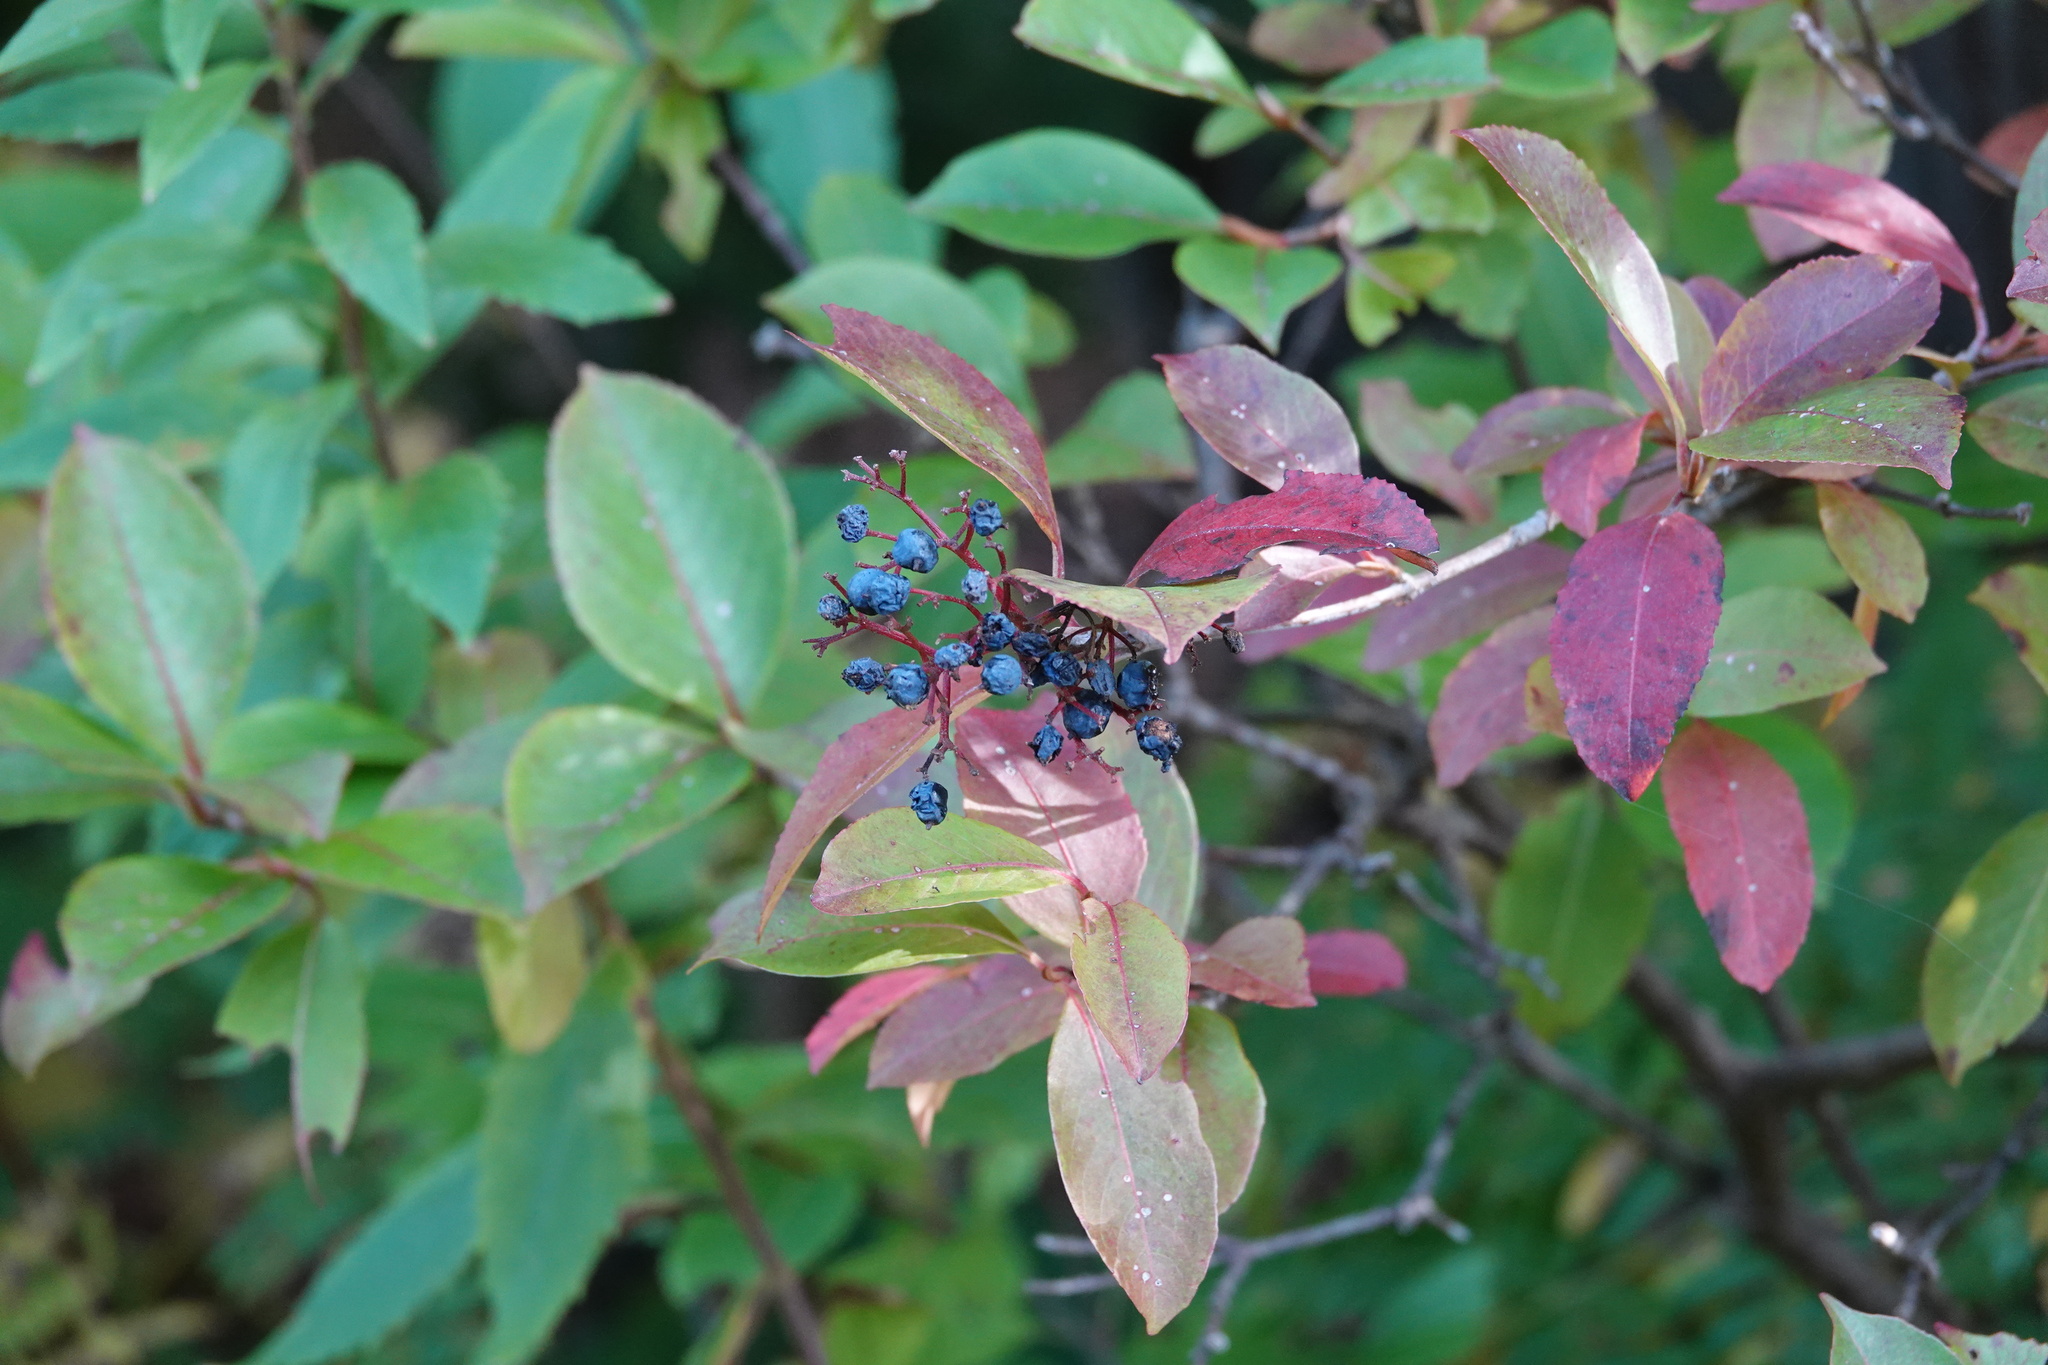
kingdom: Plantae
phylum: Tracheophyta
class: Magnoliopsida
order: Dipsacales
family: Viburnaceae
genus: Viburnum
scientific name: Viburnum cassinoides
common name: Swamp haw
